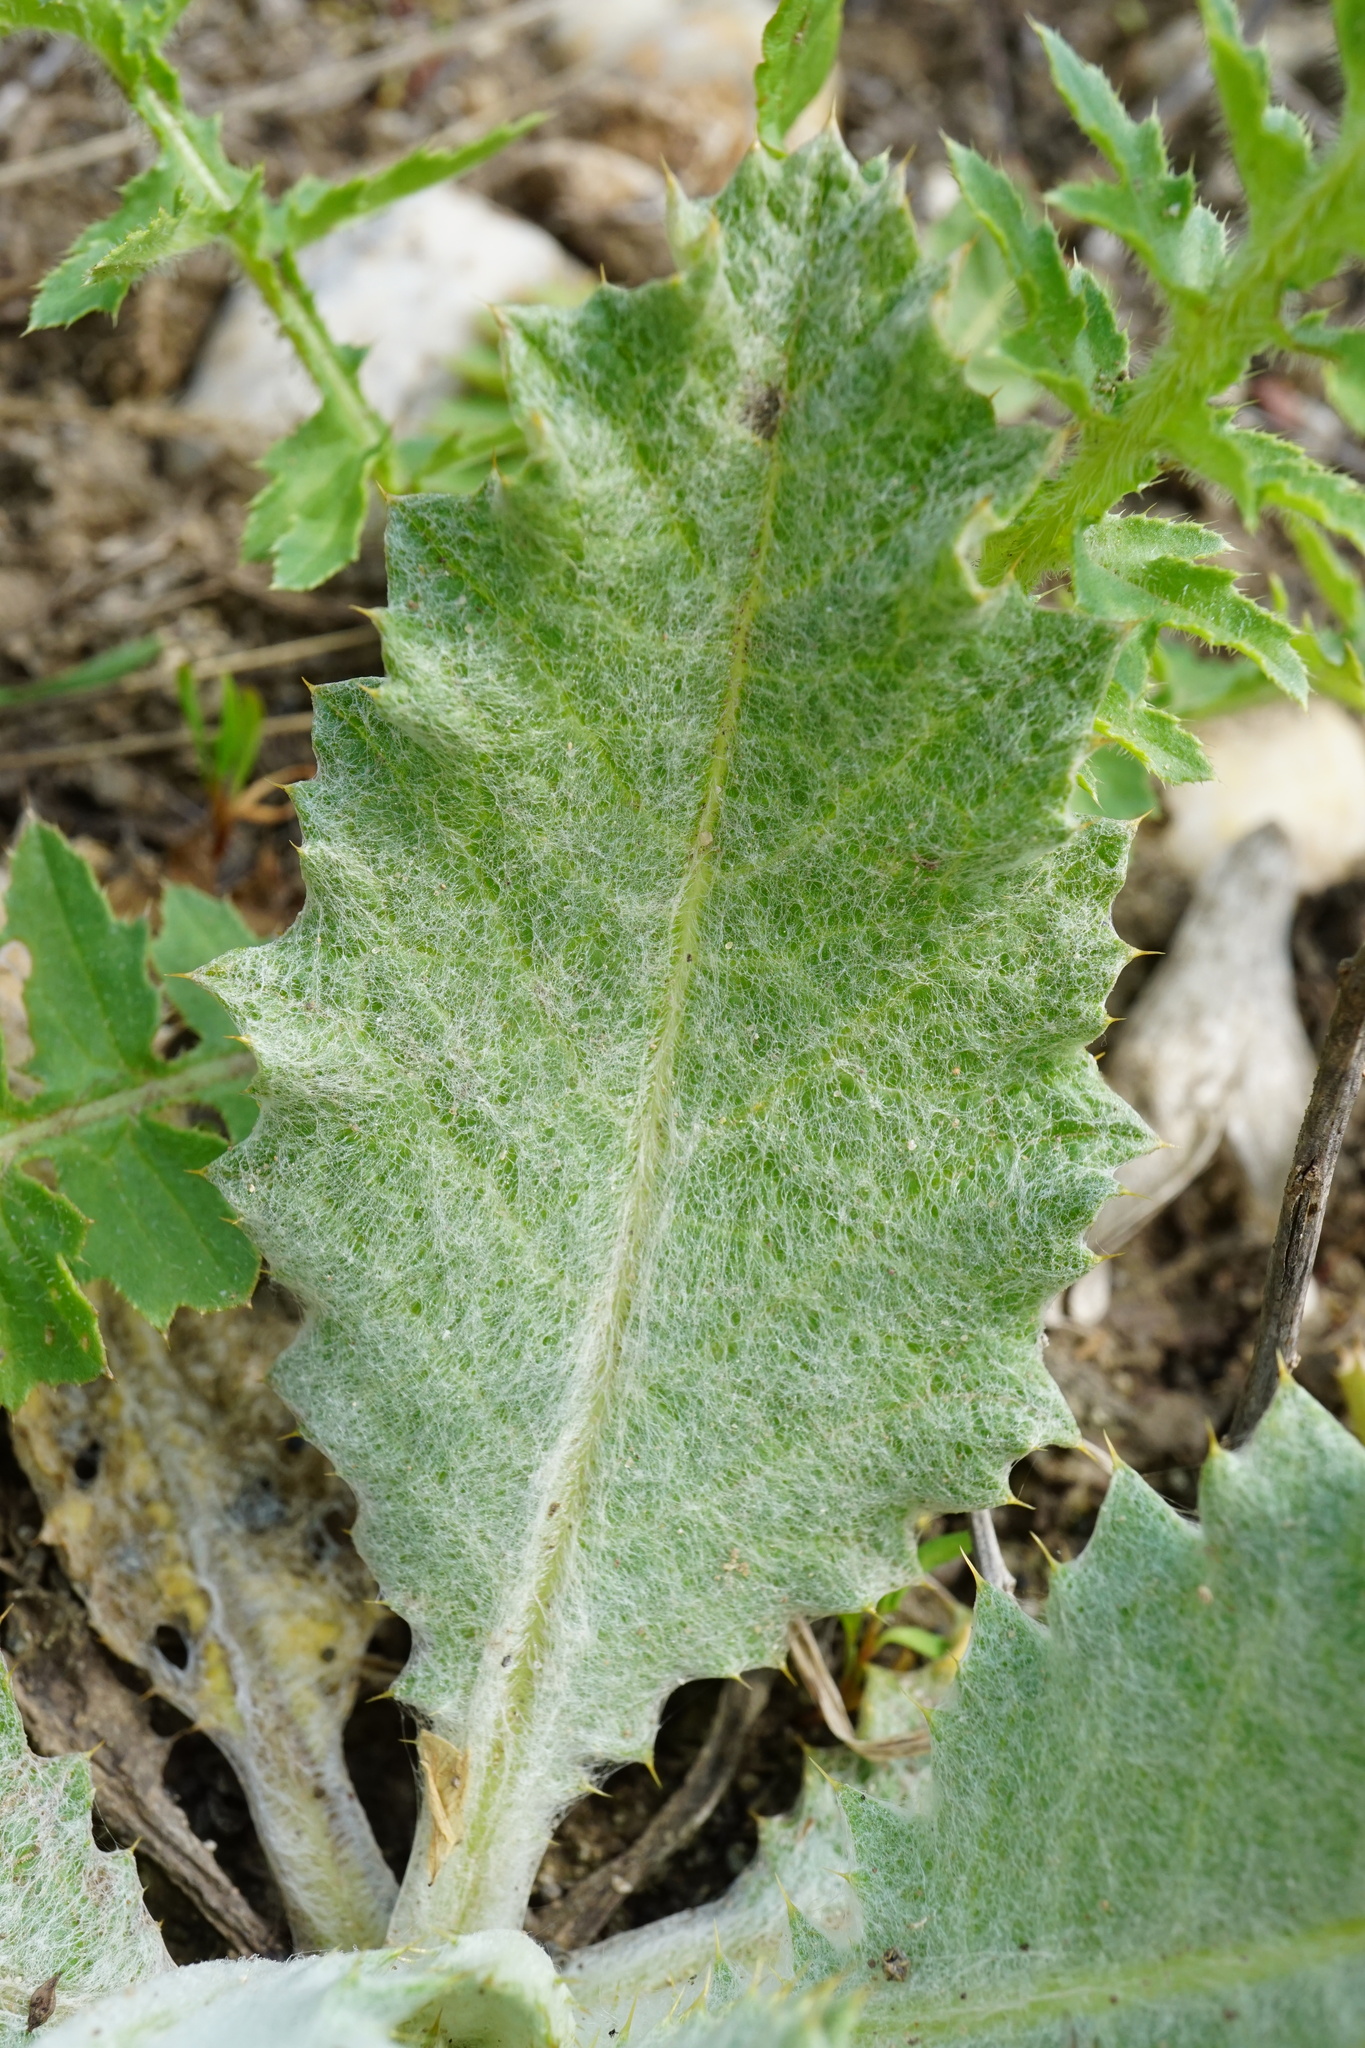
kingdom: Plantae
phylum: Tracheophyta
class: Magnoliopsida
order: Asterales
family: Asteraceae
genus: Onopordum
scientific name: Onopordum acanthium
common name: Scotch thistle
